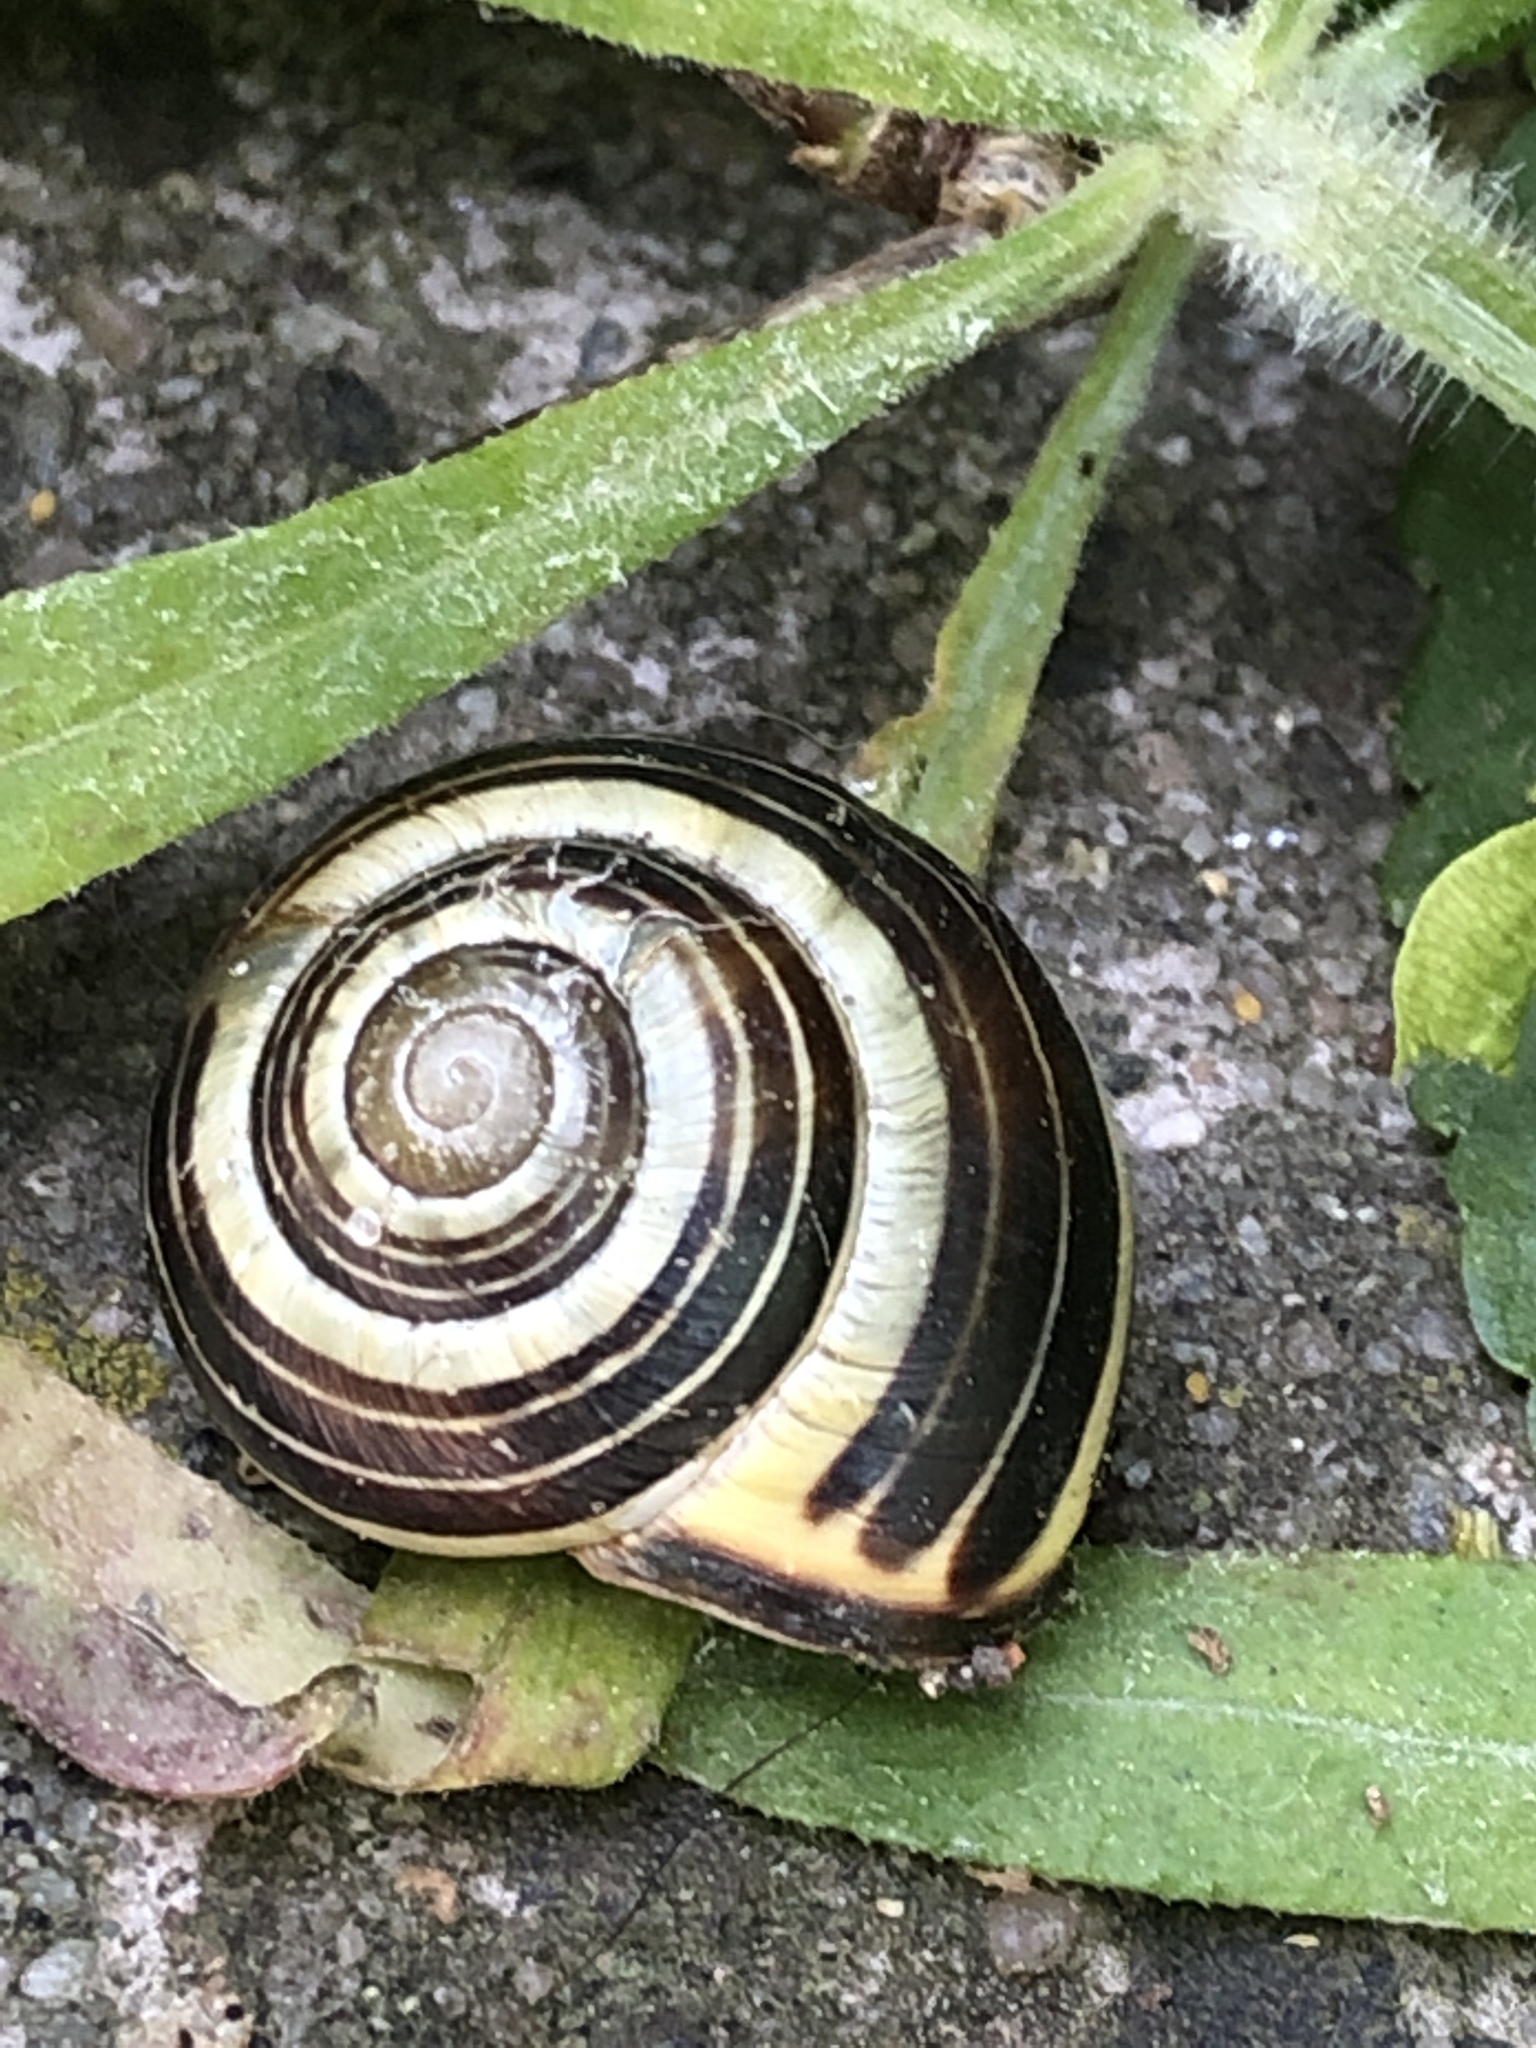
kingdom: Animalia
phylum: Mollusca
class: Gastropoda
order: Stylommatophora
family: Helicidae
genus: Cepaea
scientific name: Cepaea nemoralis
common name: Grovesnail
